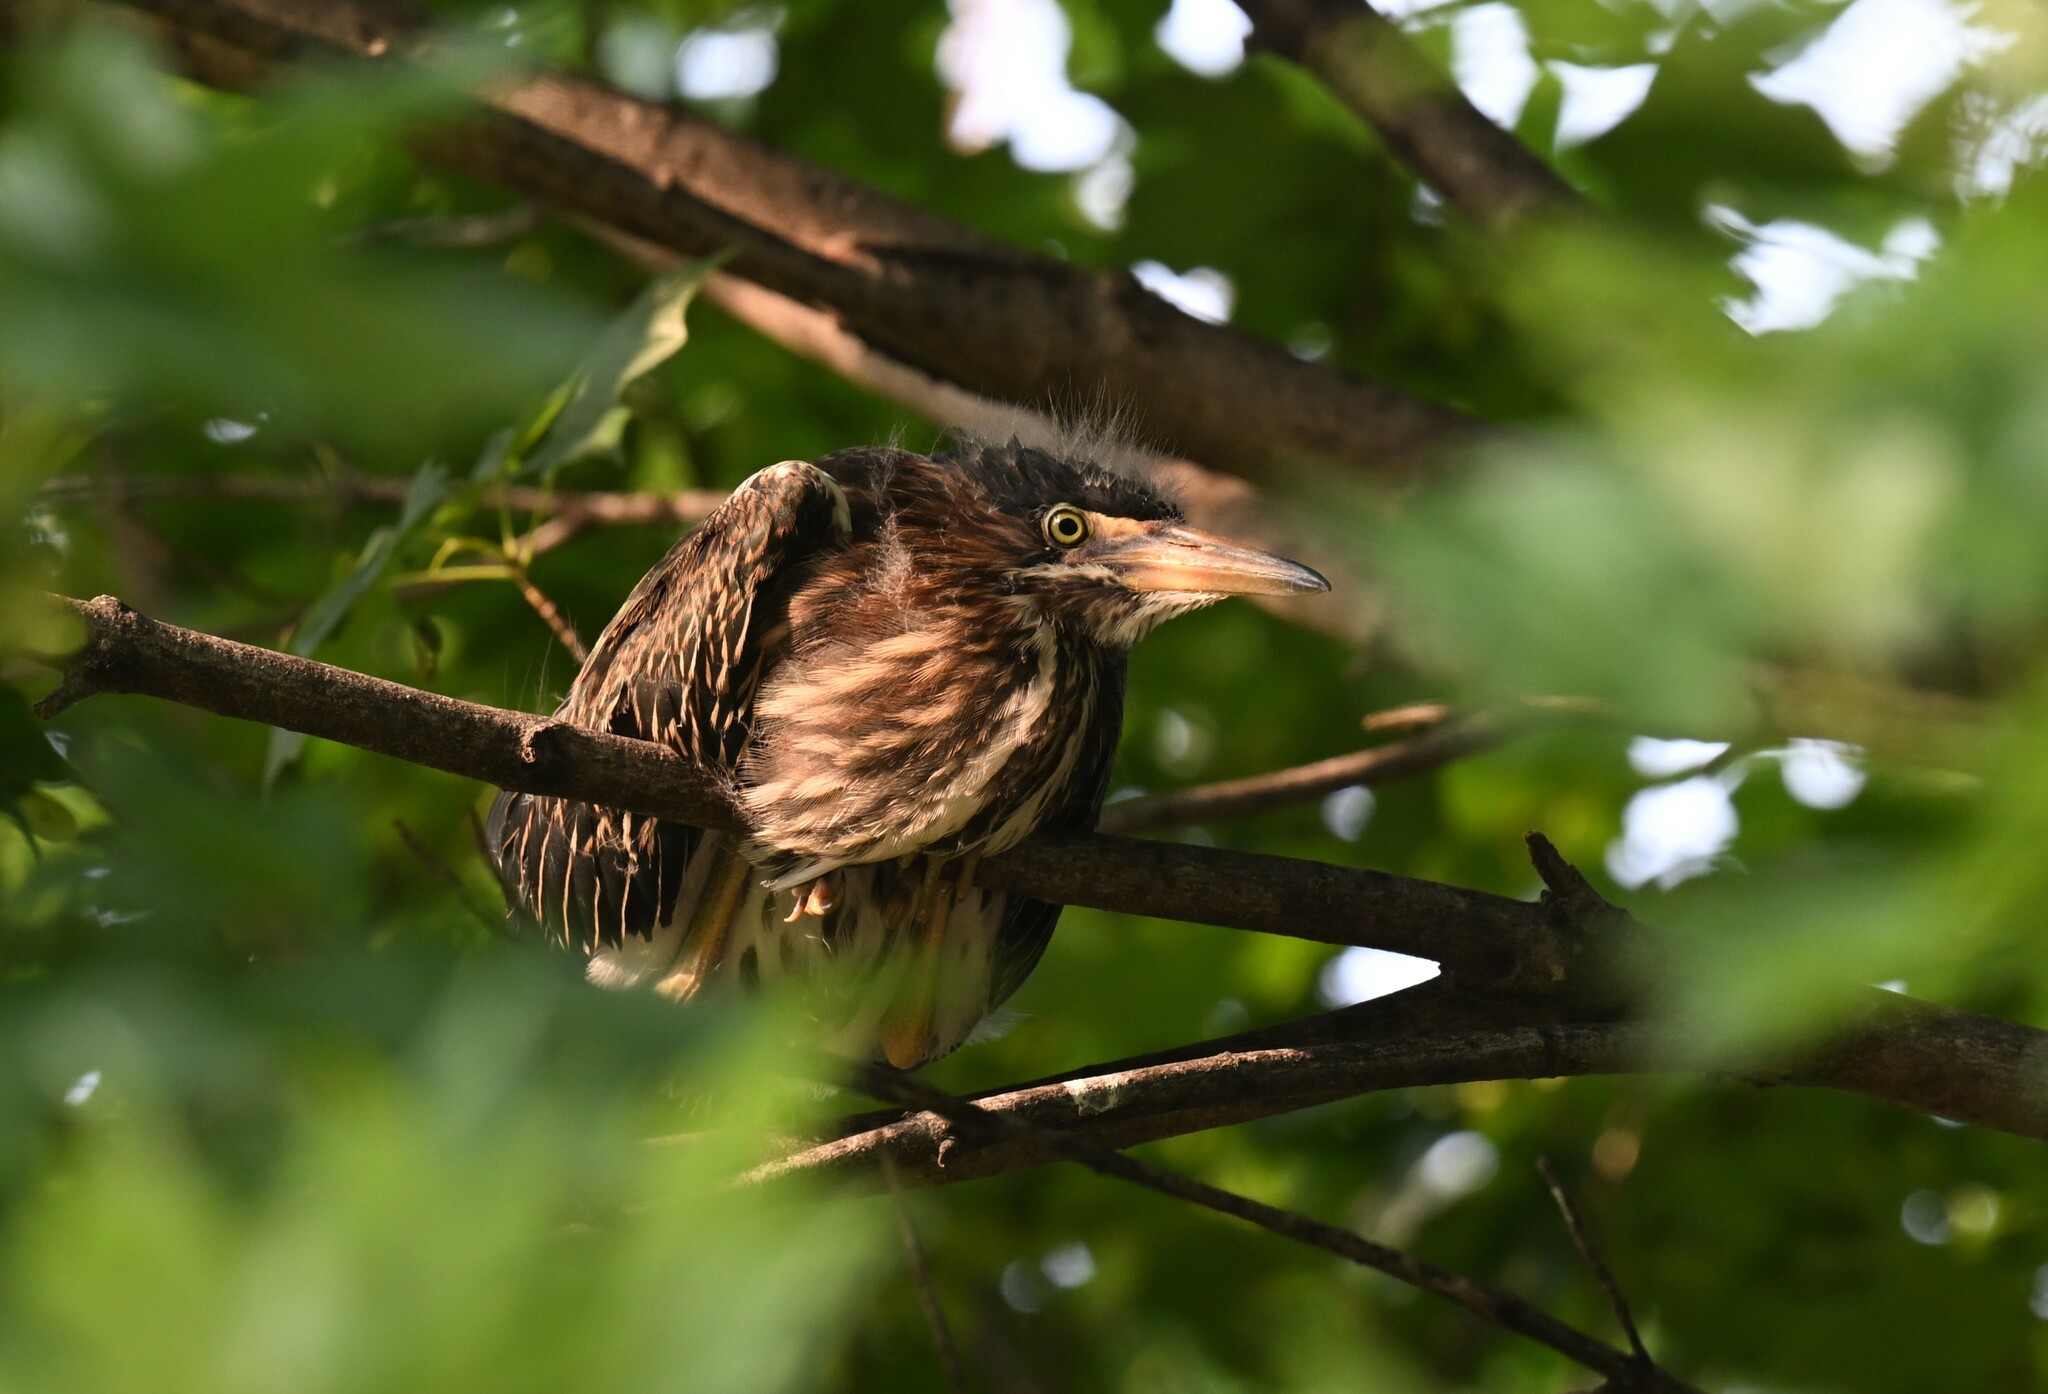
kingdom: Animalia
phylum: Chordata
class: Aves
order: Pelecaniformes
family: Ardeidae
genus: Butorides
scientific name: Butorides virescens
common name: Green heron
